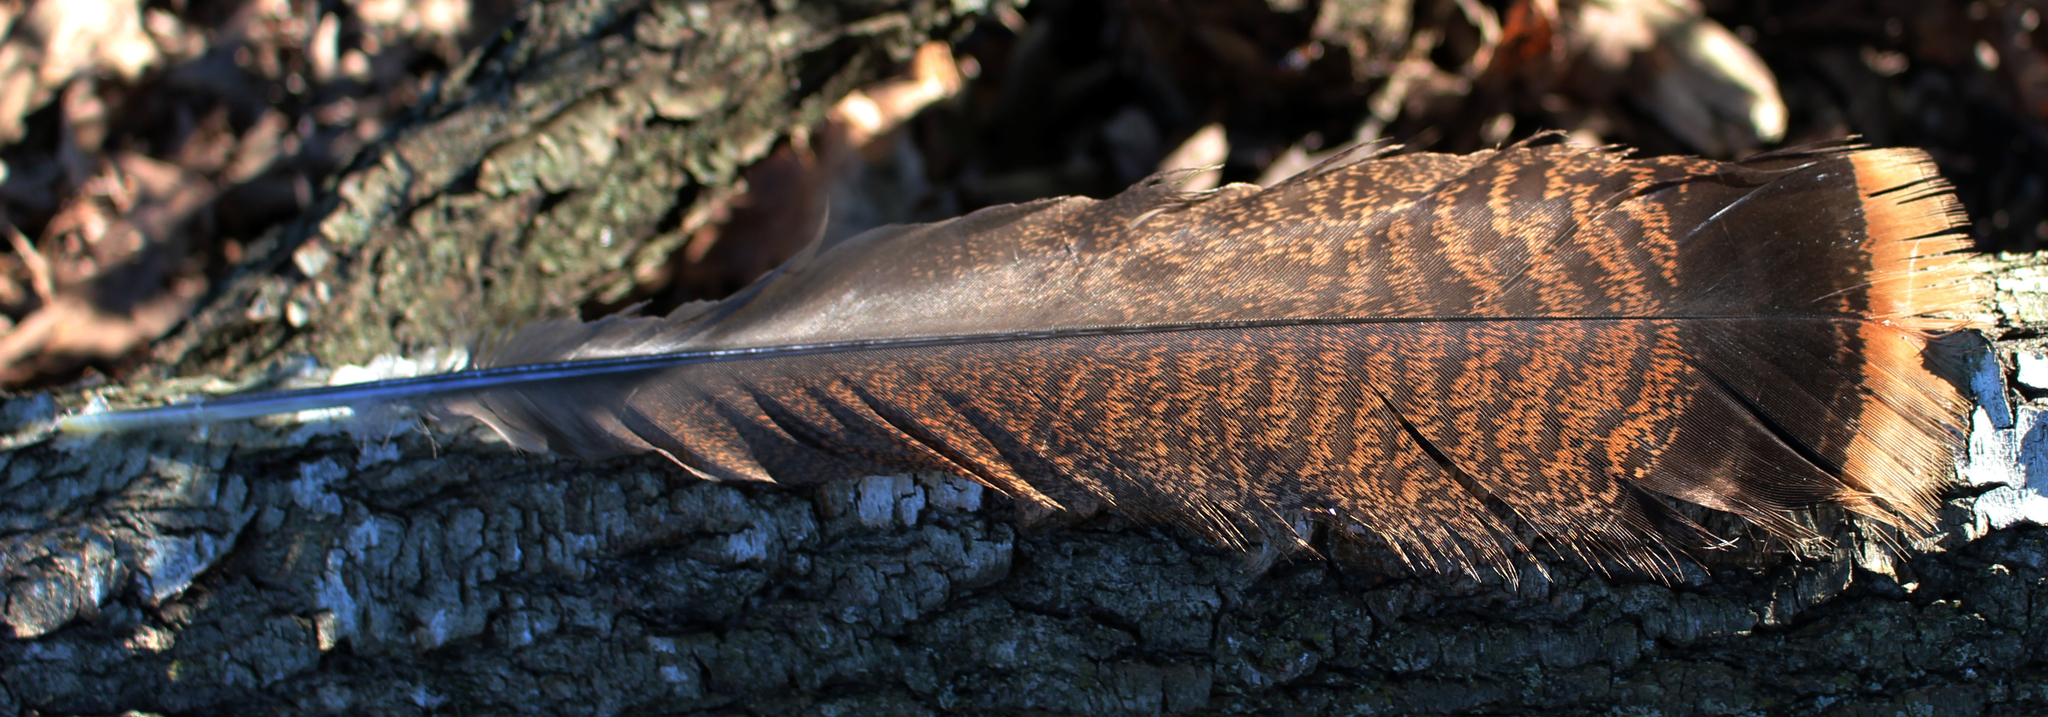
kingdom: Animalia
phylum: Chordata
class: Aves
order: Galliformes
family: Phasianidae
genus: Meleagris
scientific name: Meleagris gallopavo
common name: Wild turkey
